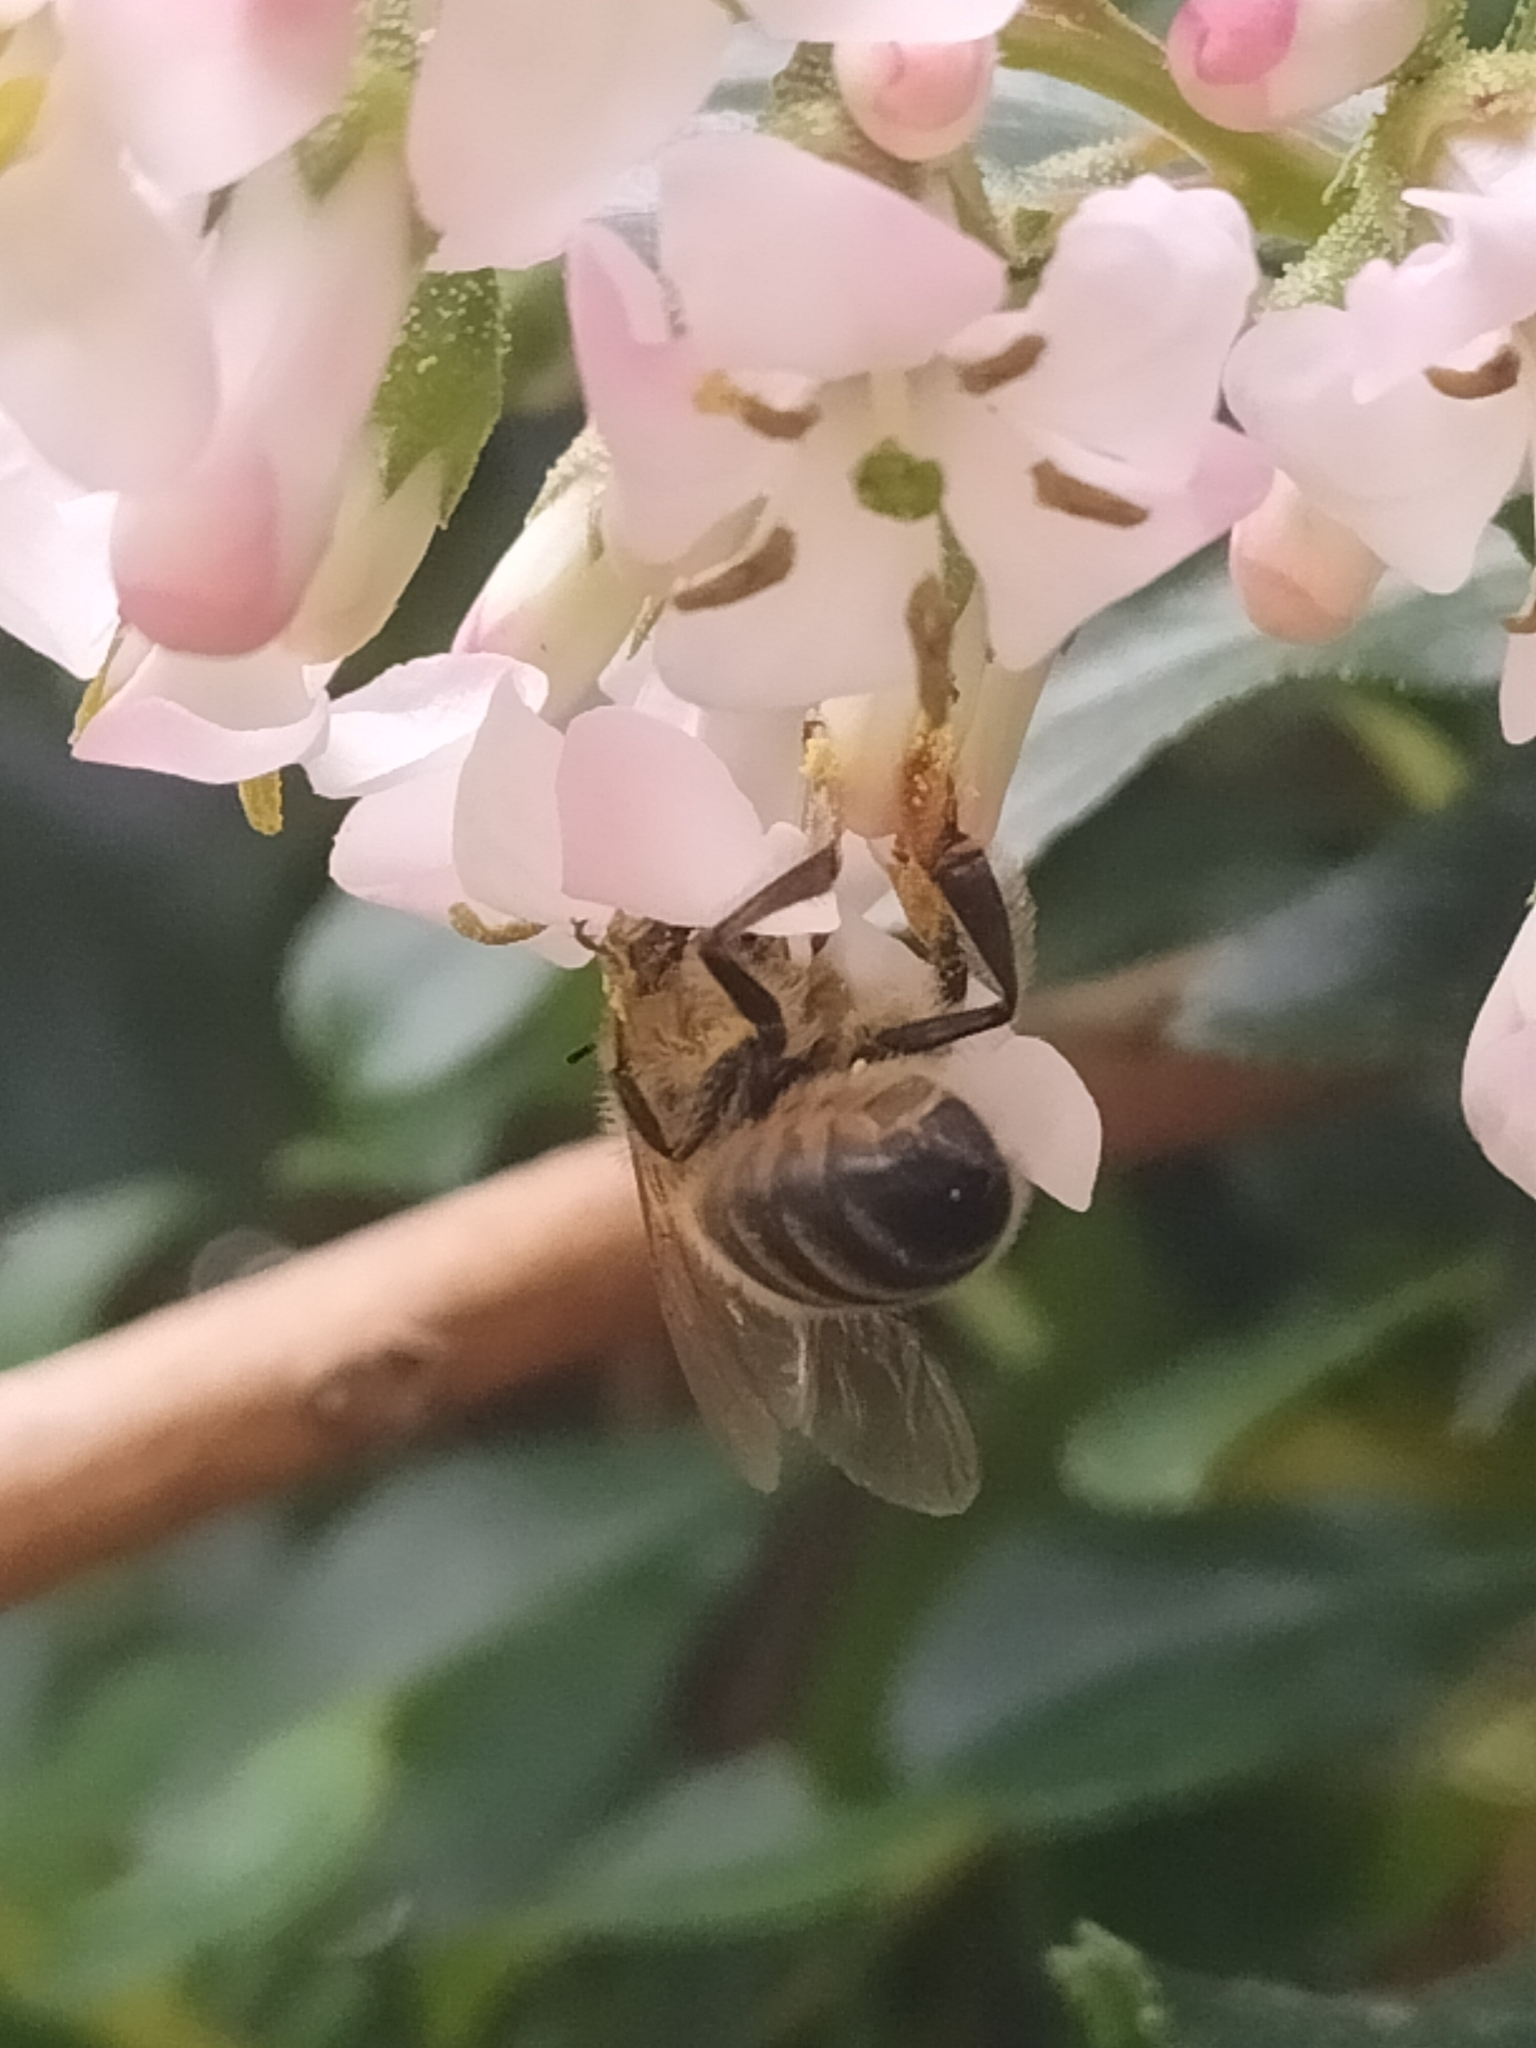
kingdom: Animalia
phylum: Arthropoda
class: Insecta
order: Hymenoptera
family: Apidae
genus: Apis
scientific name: Apis mellifera
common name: Honey bee
